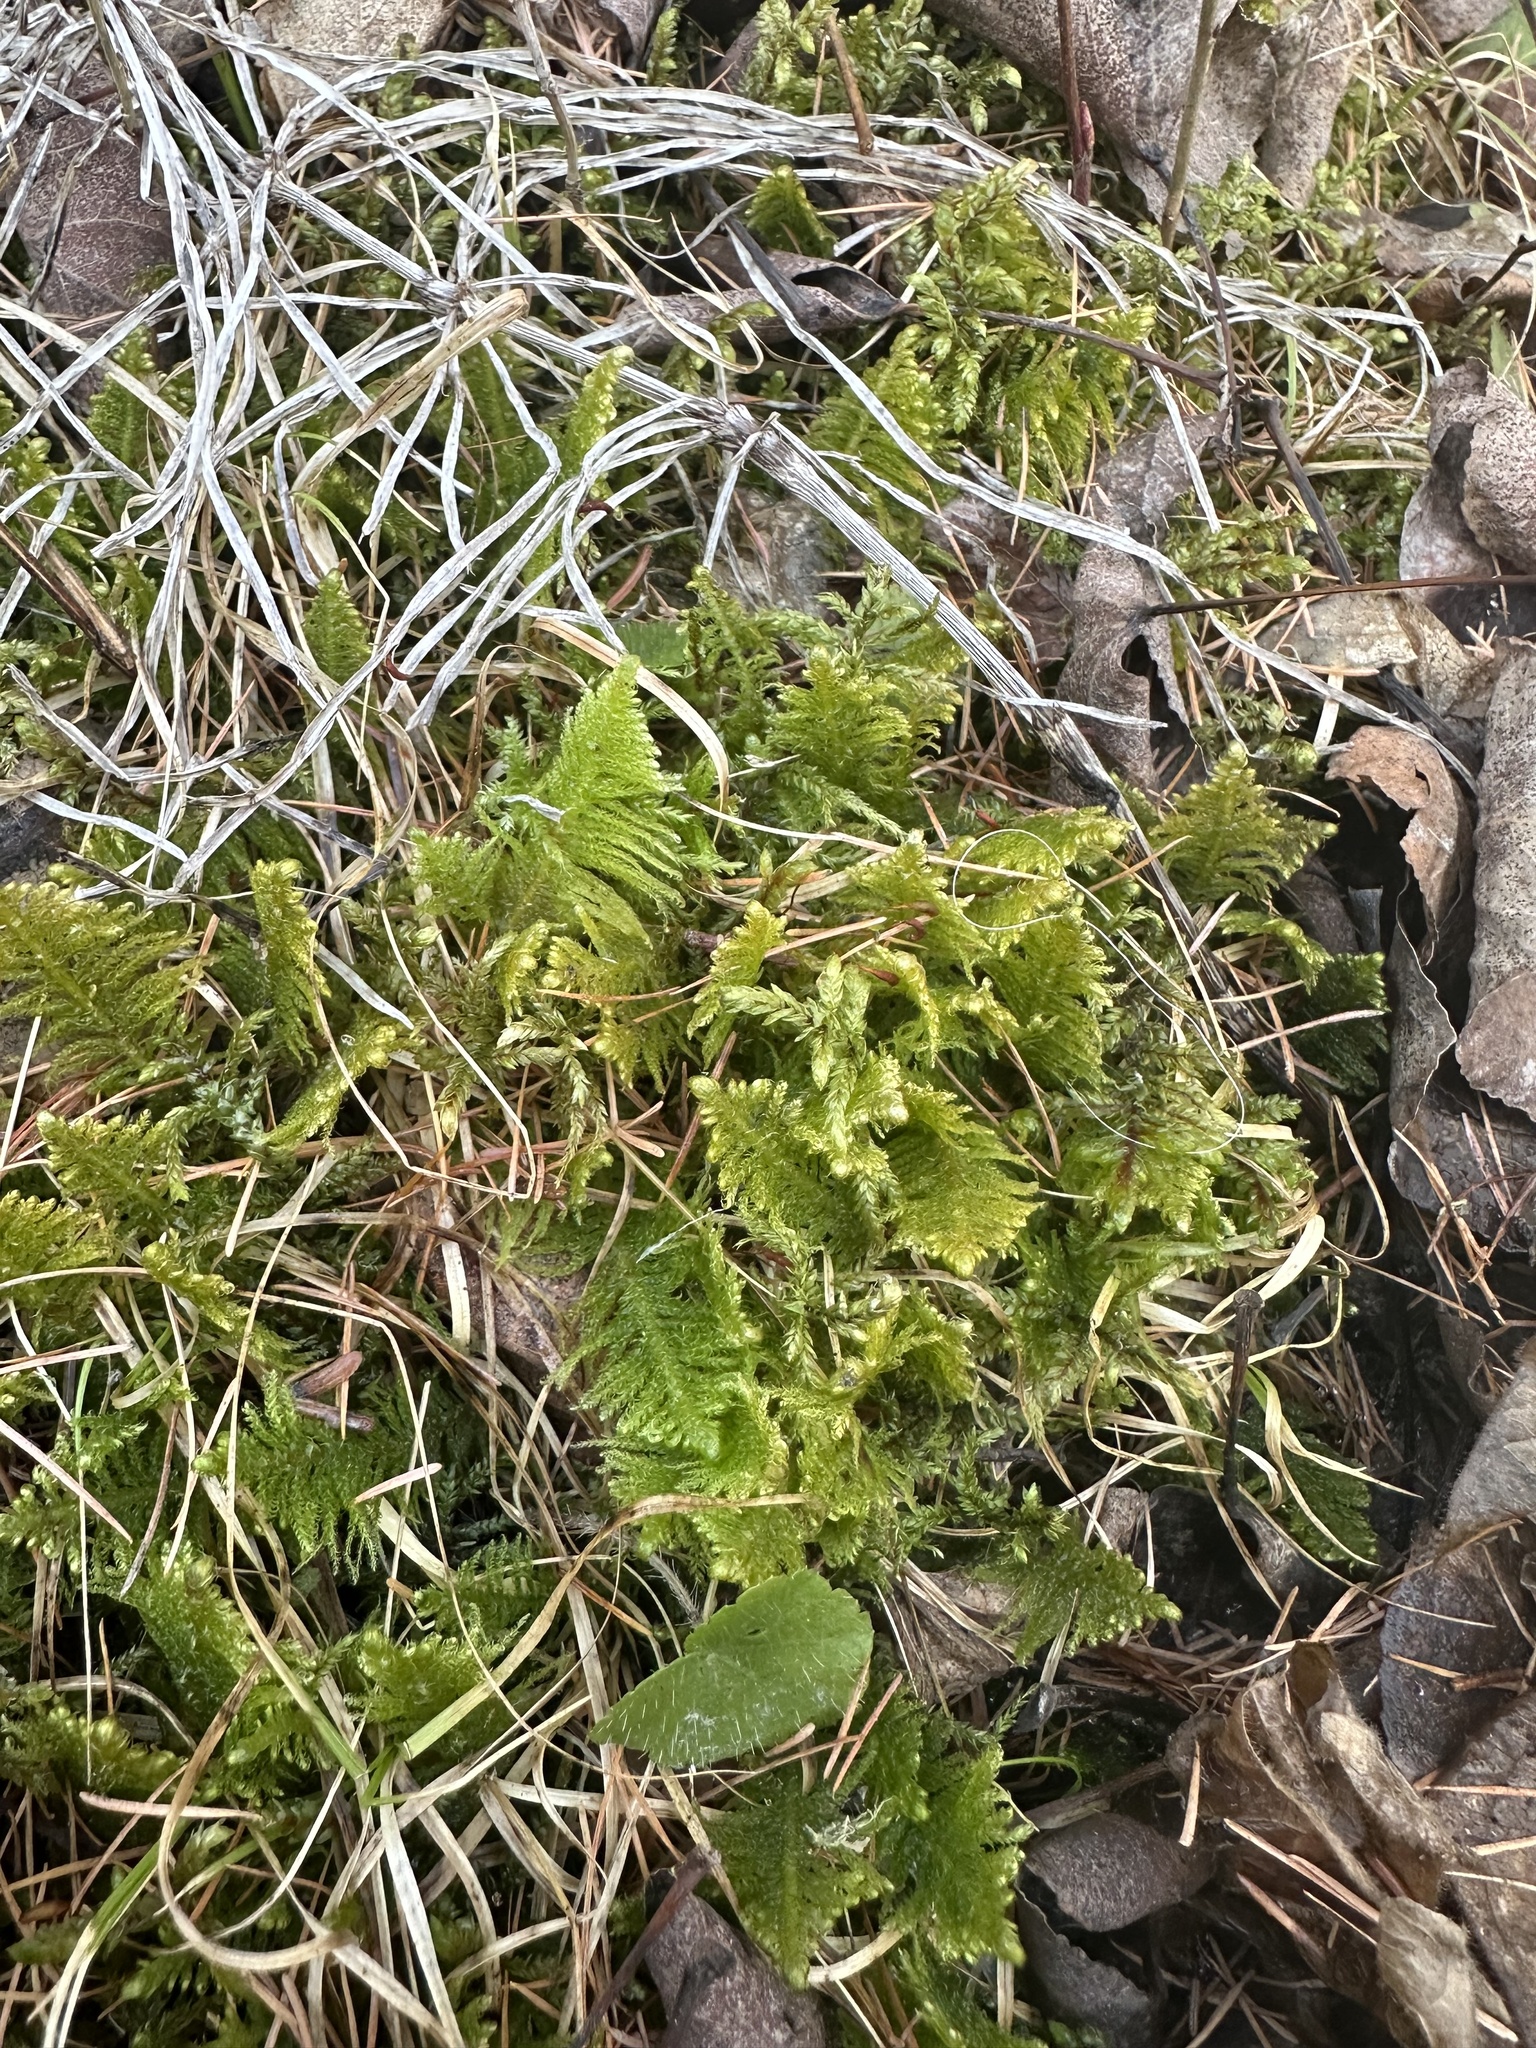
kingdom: Plantae
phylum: Bryophyta
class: Bryopsida
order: Hypnales
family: Pylaisiaceae
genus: Ptilium
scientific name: Ptilium crista-castrensis
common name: Knight's plume moss
